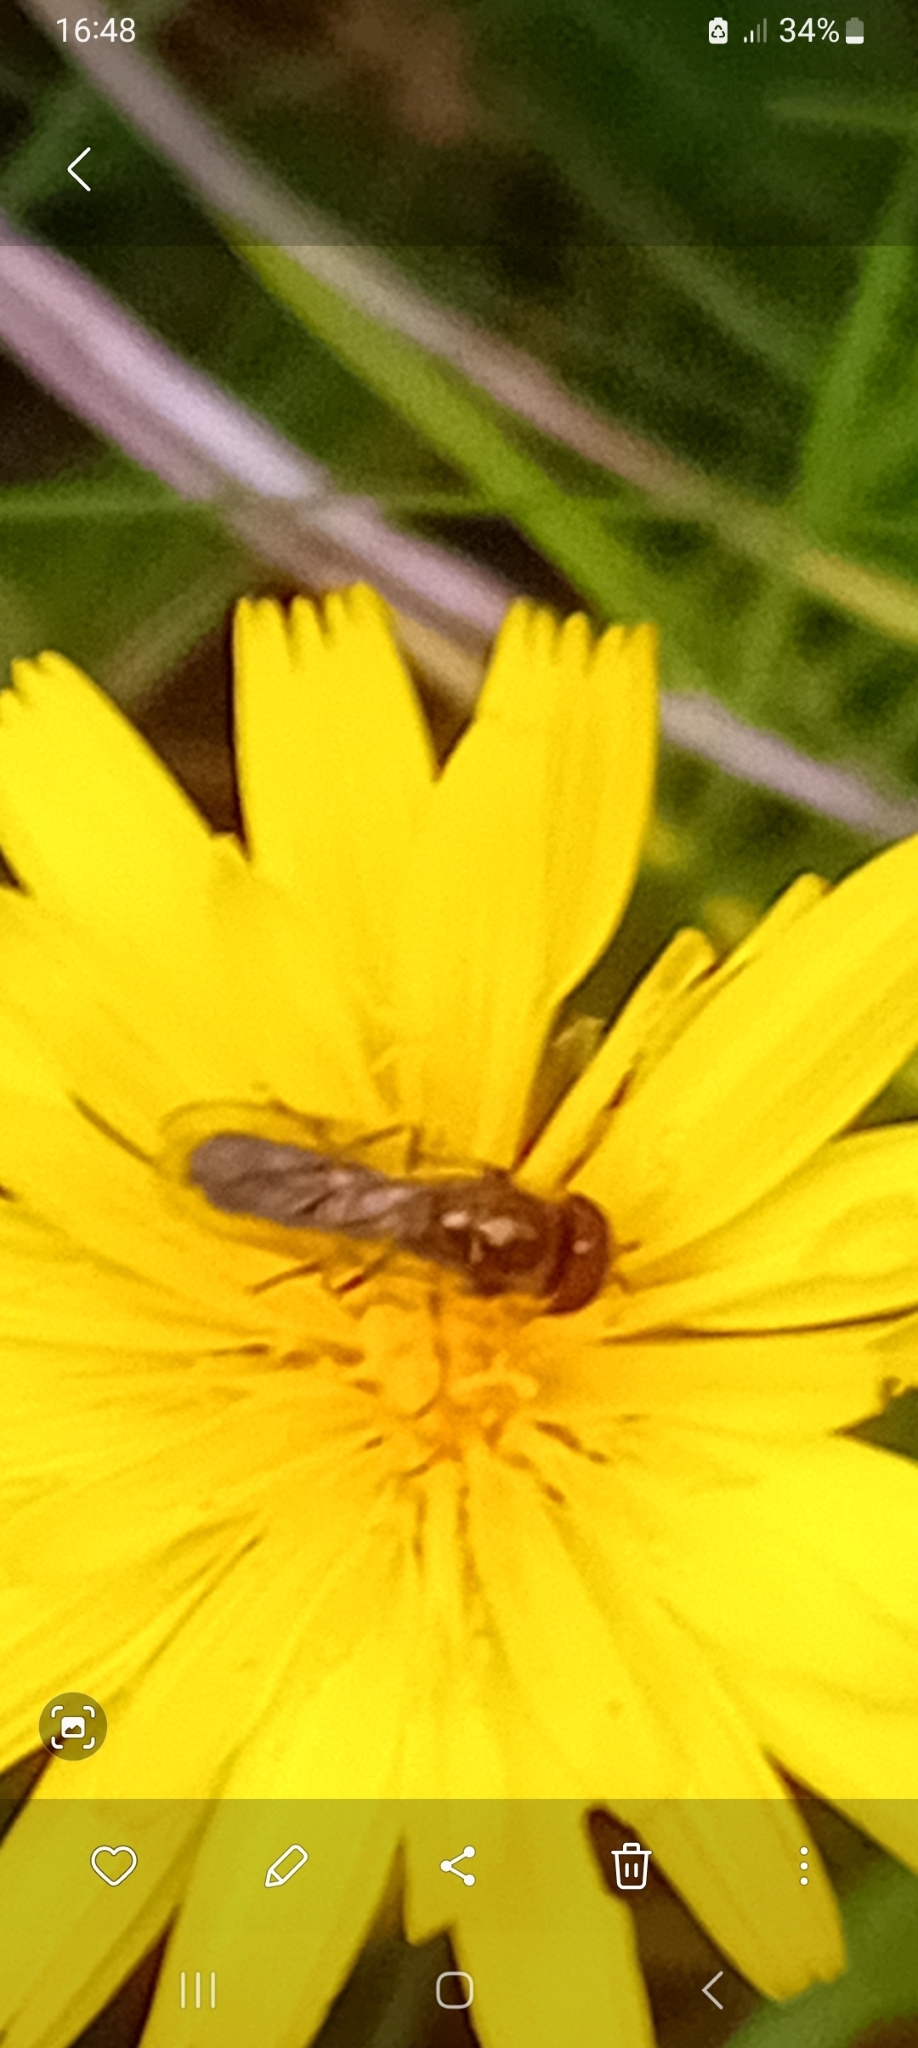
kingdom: Animalia
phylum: Arthropoda
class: Insecta
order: Diptera
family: Syrphidae
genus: Platycheirus
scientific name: Platycheirus
